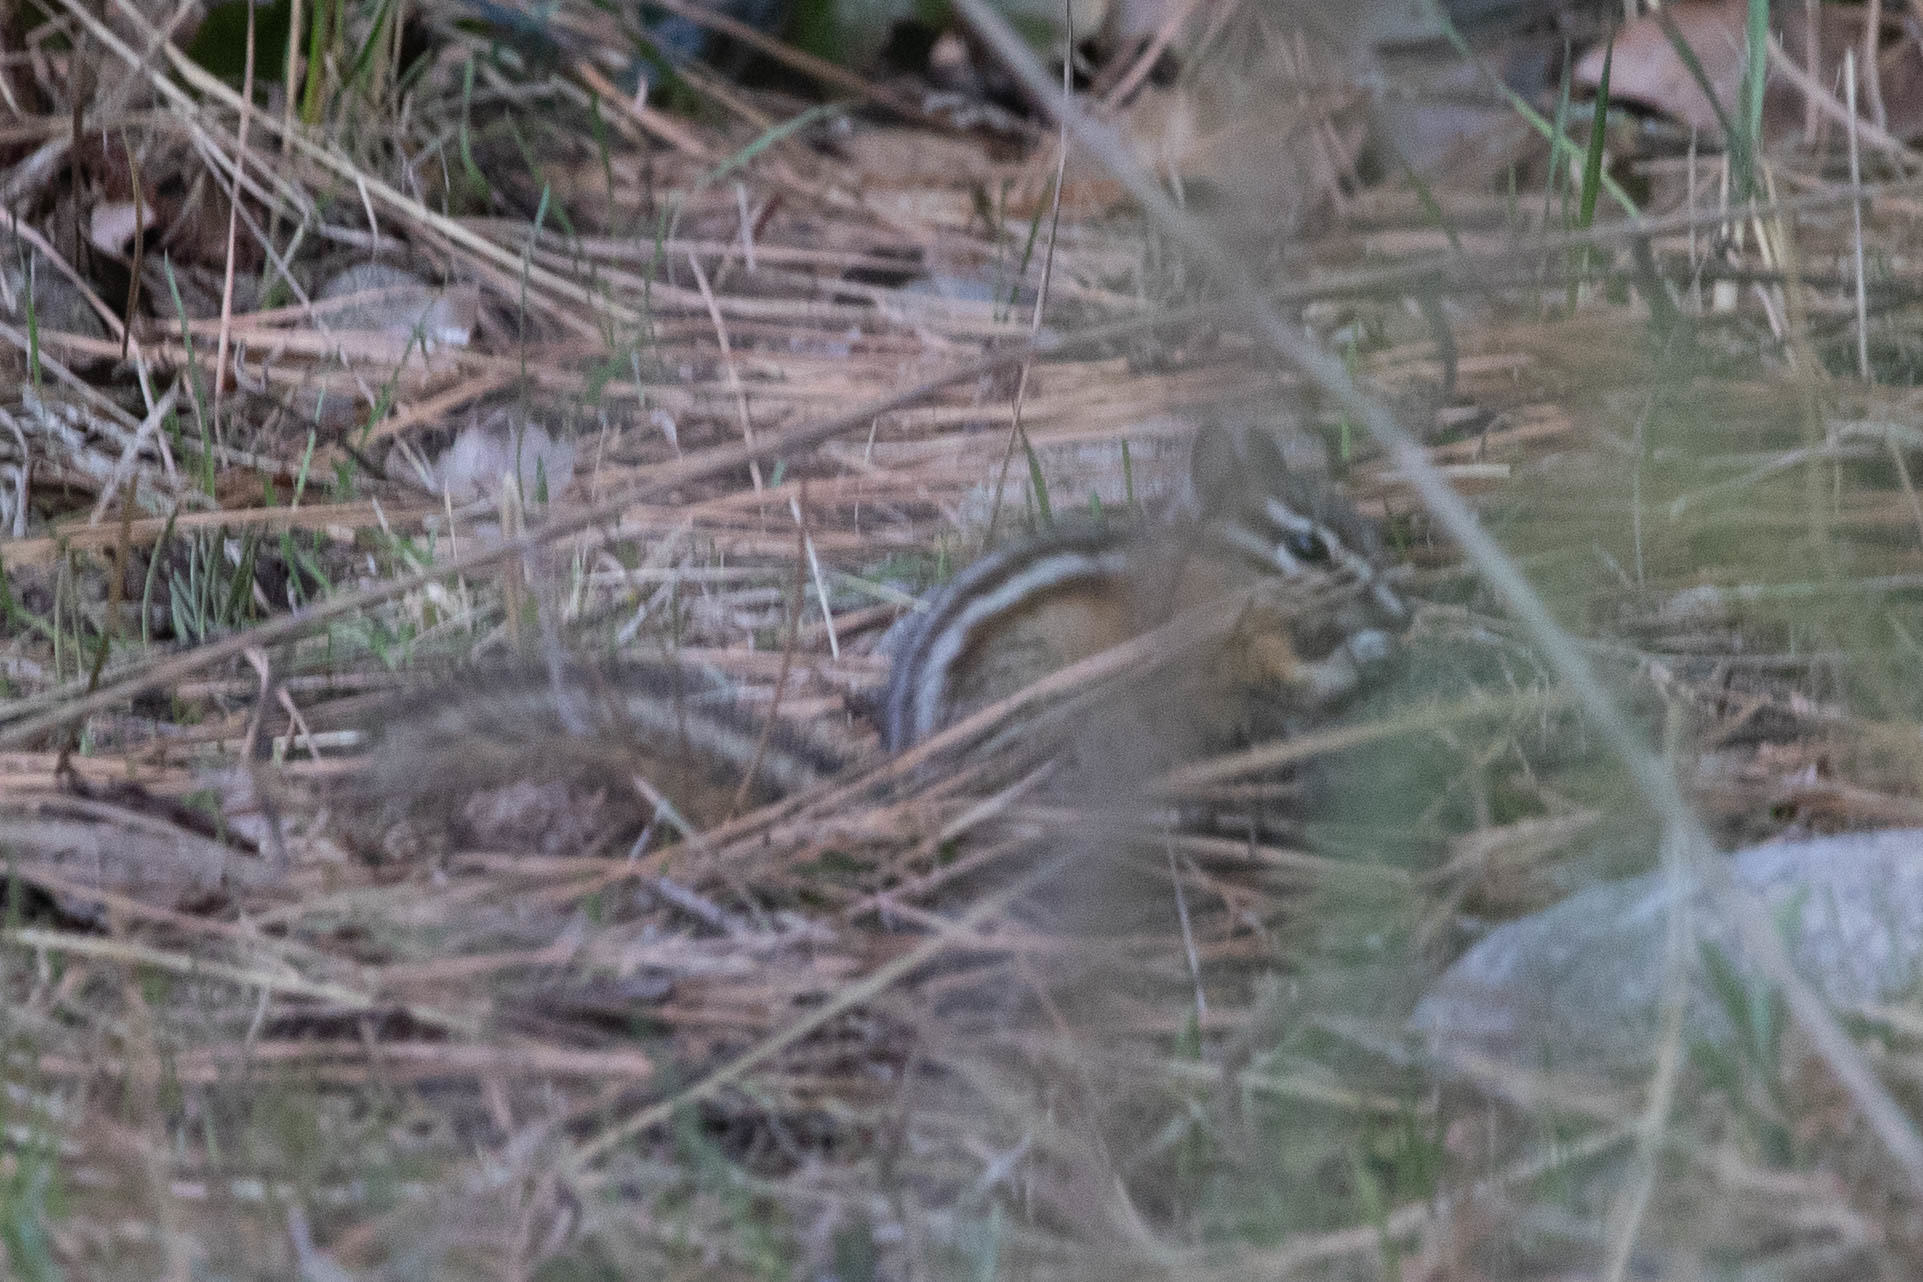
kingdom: Animalia
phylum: Chordata
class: Mammalia
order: Rodentia
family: Sciuridae
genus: Tamias
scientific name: Tamias amoenus
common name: Yellow-pine chipmunk
